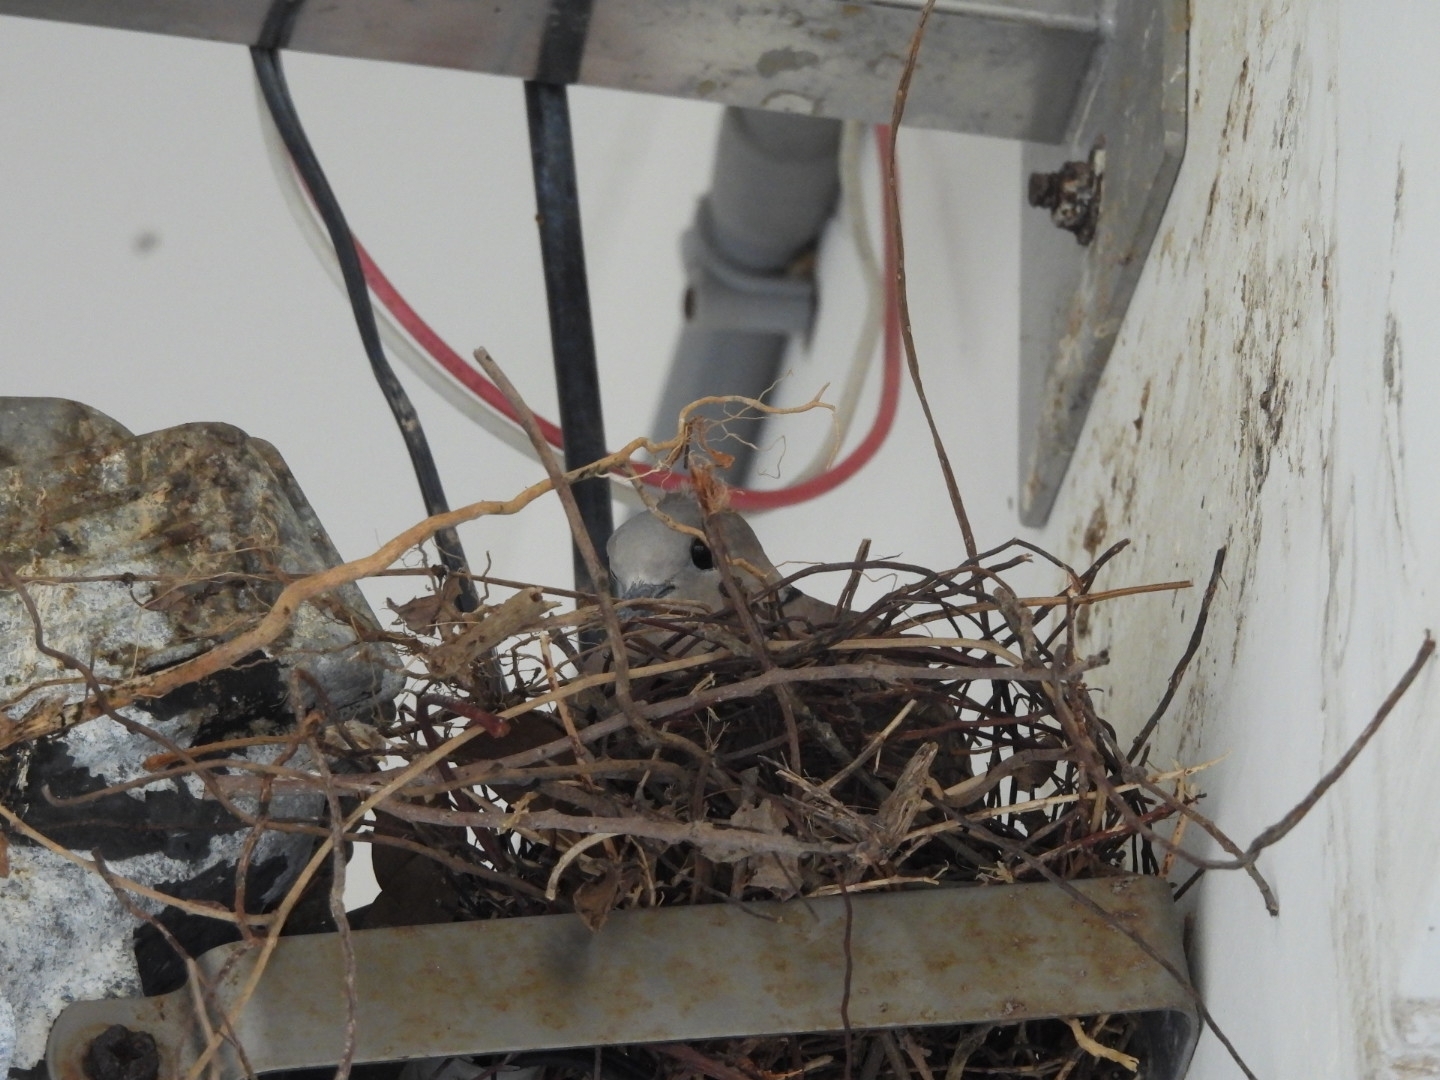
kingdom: Animalia
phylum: Chordata
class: Aves
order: Columbiformes
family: Columbidae
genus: Streptopelia
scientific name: Streptopelia tranquebarica
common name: Red turtle dove
